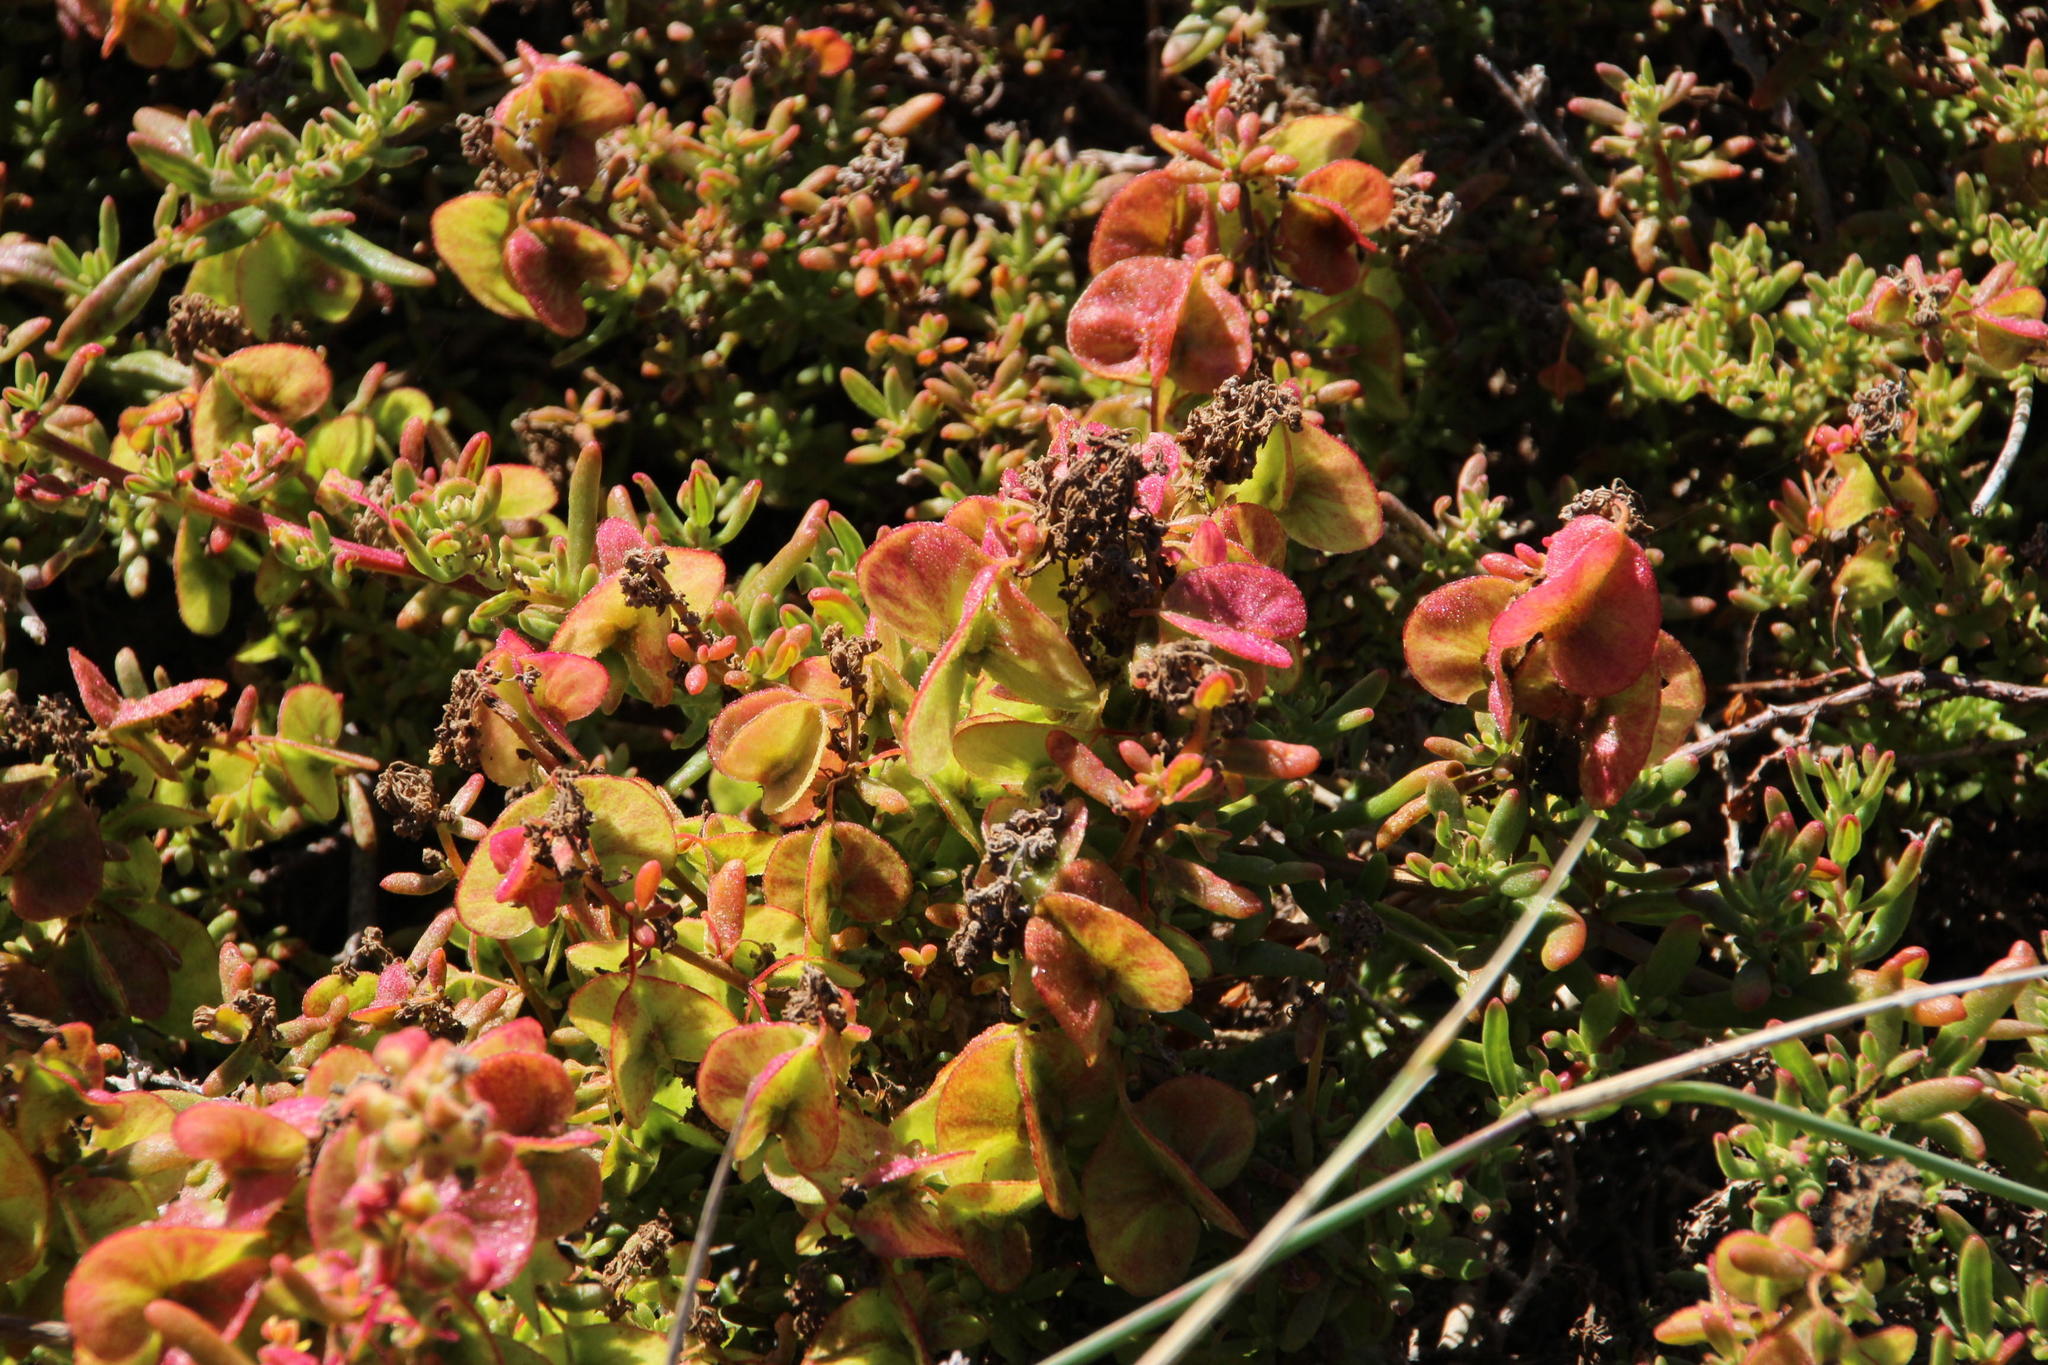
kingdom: Plantae
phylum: Tracheophyta
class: Magnoliopsida
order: Caryophyllales
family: Aizoaceae
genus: Tetragonia
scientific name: Tetragonia fruticosa
